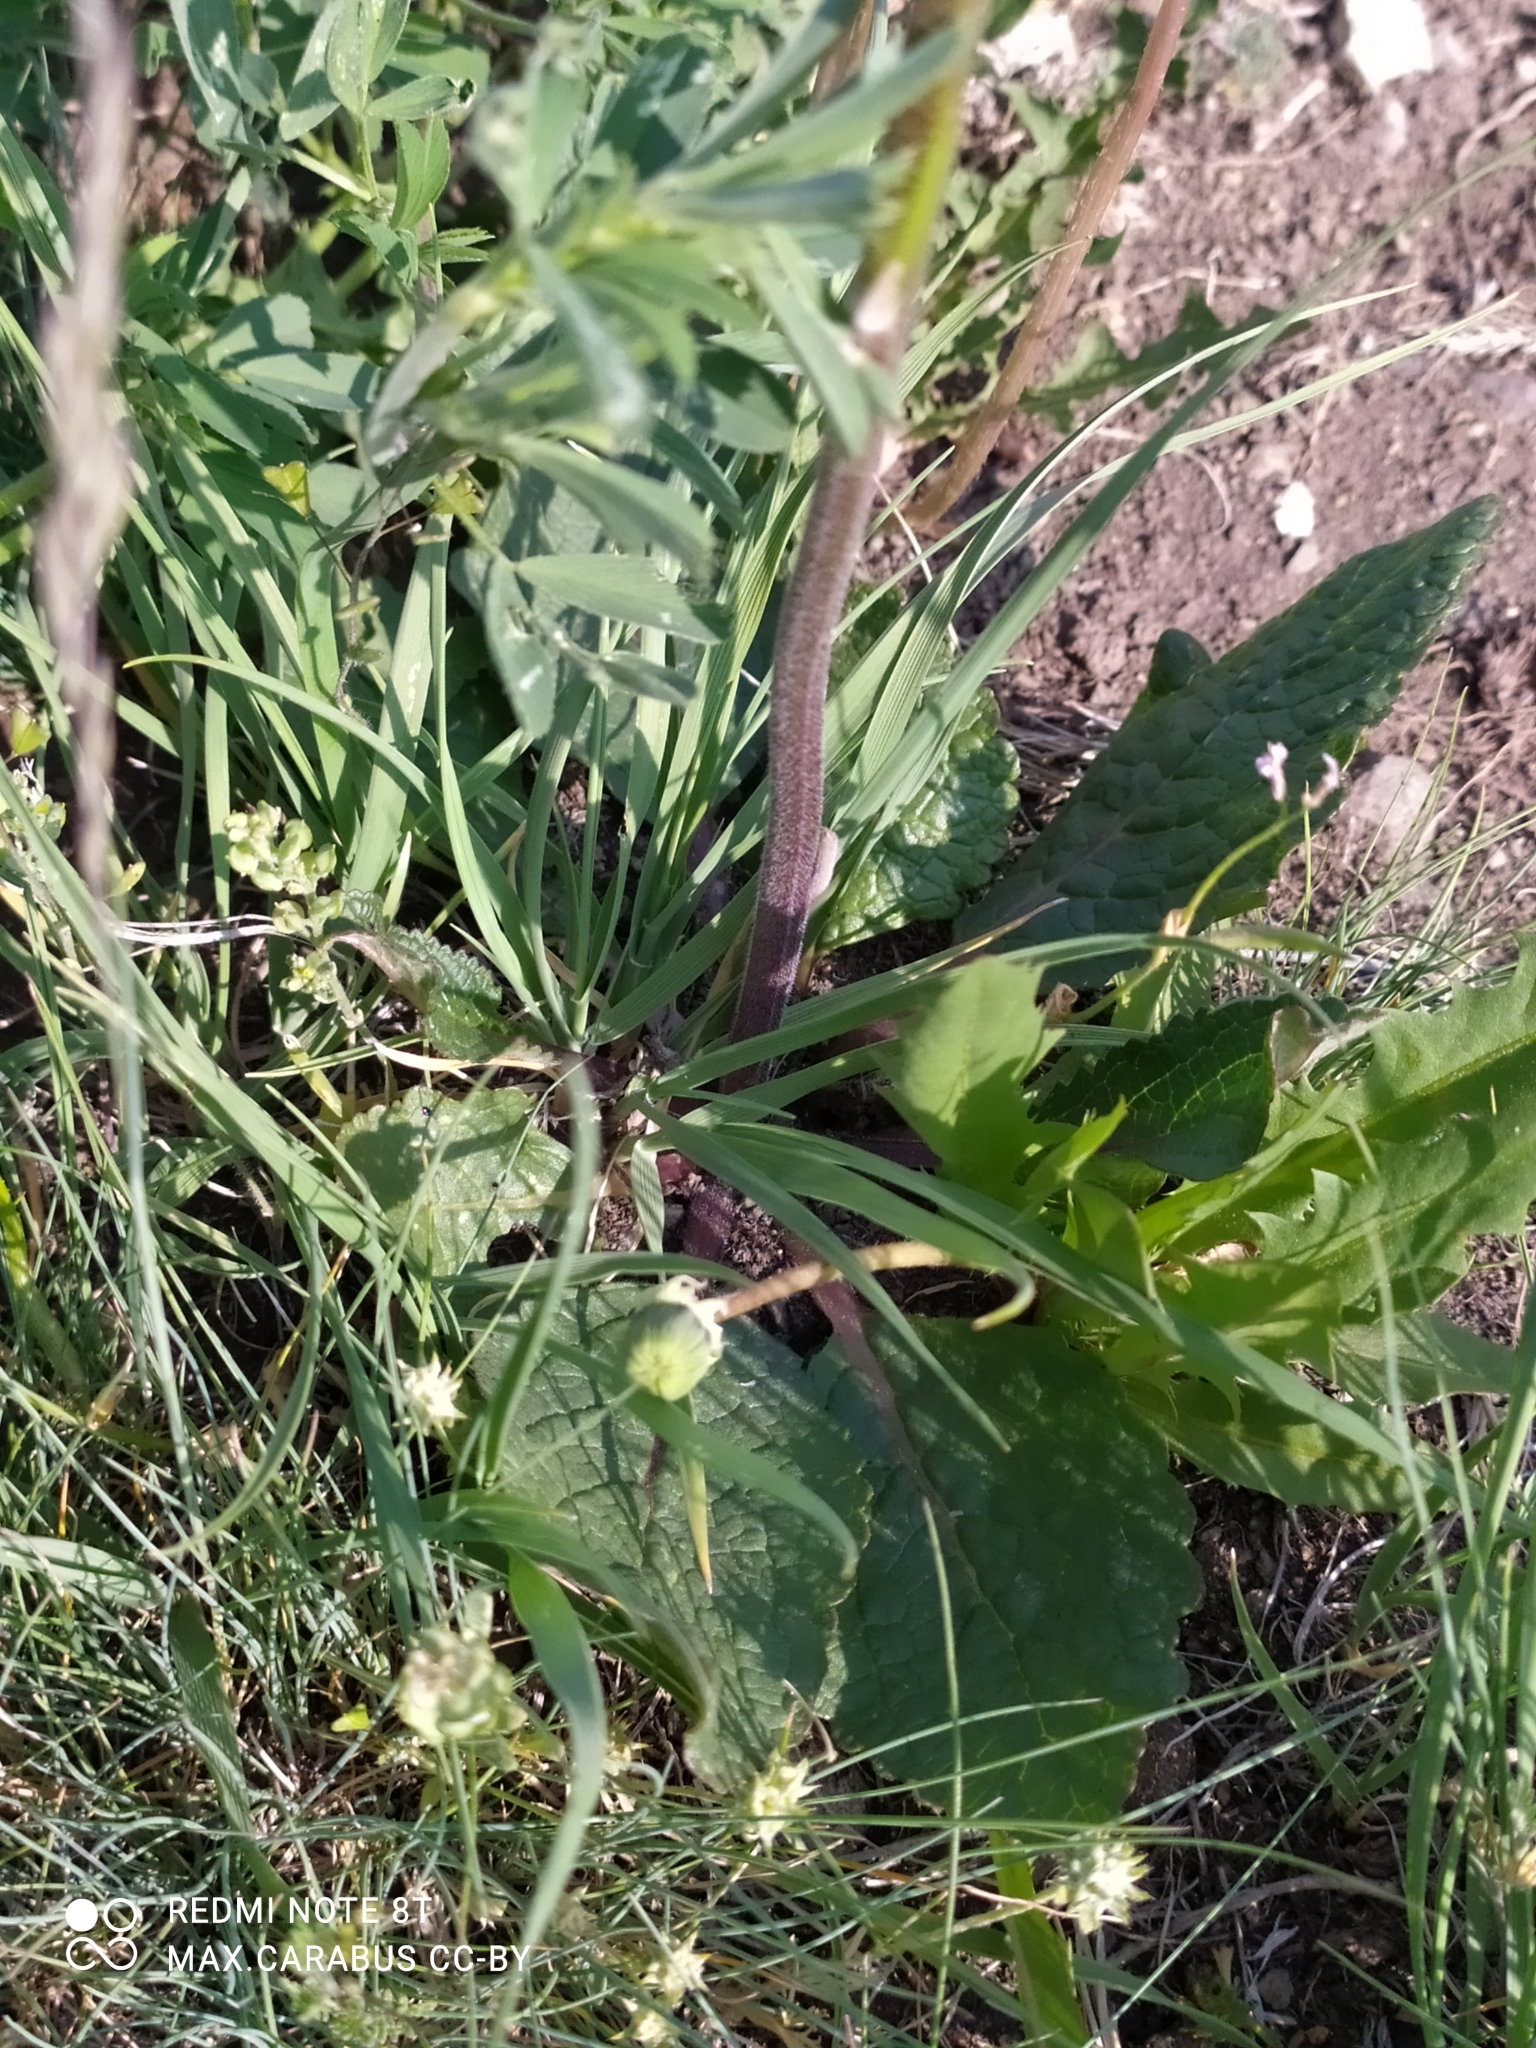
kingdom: Plantae
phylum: Tracheophyta
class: Magnoliopsida
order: Lamiales
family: Scrophulariaceae
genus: Verbascum
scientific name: Verbascum phoeniceum
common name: Purple mullein
